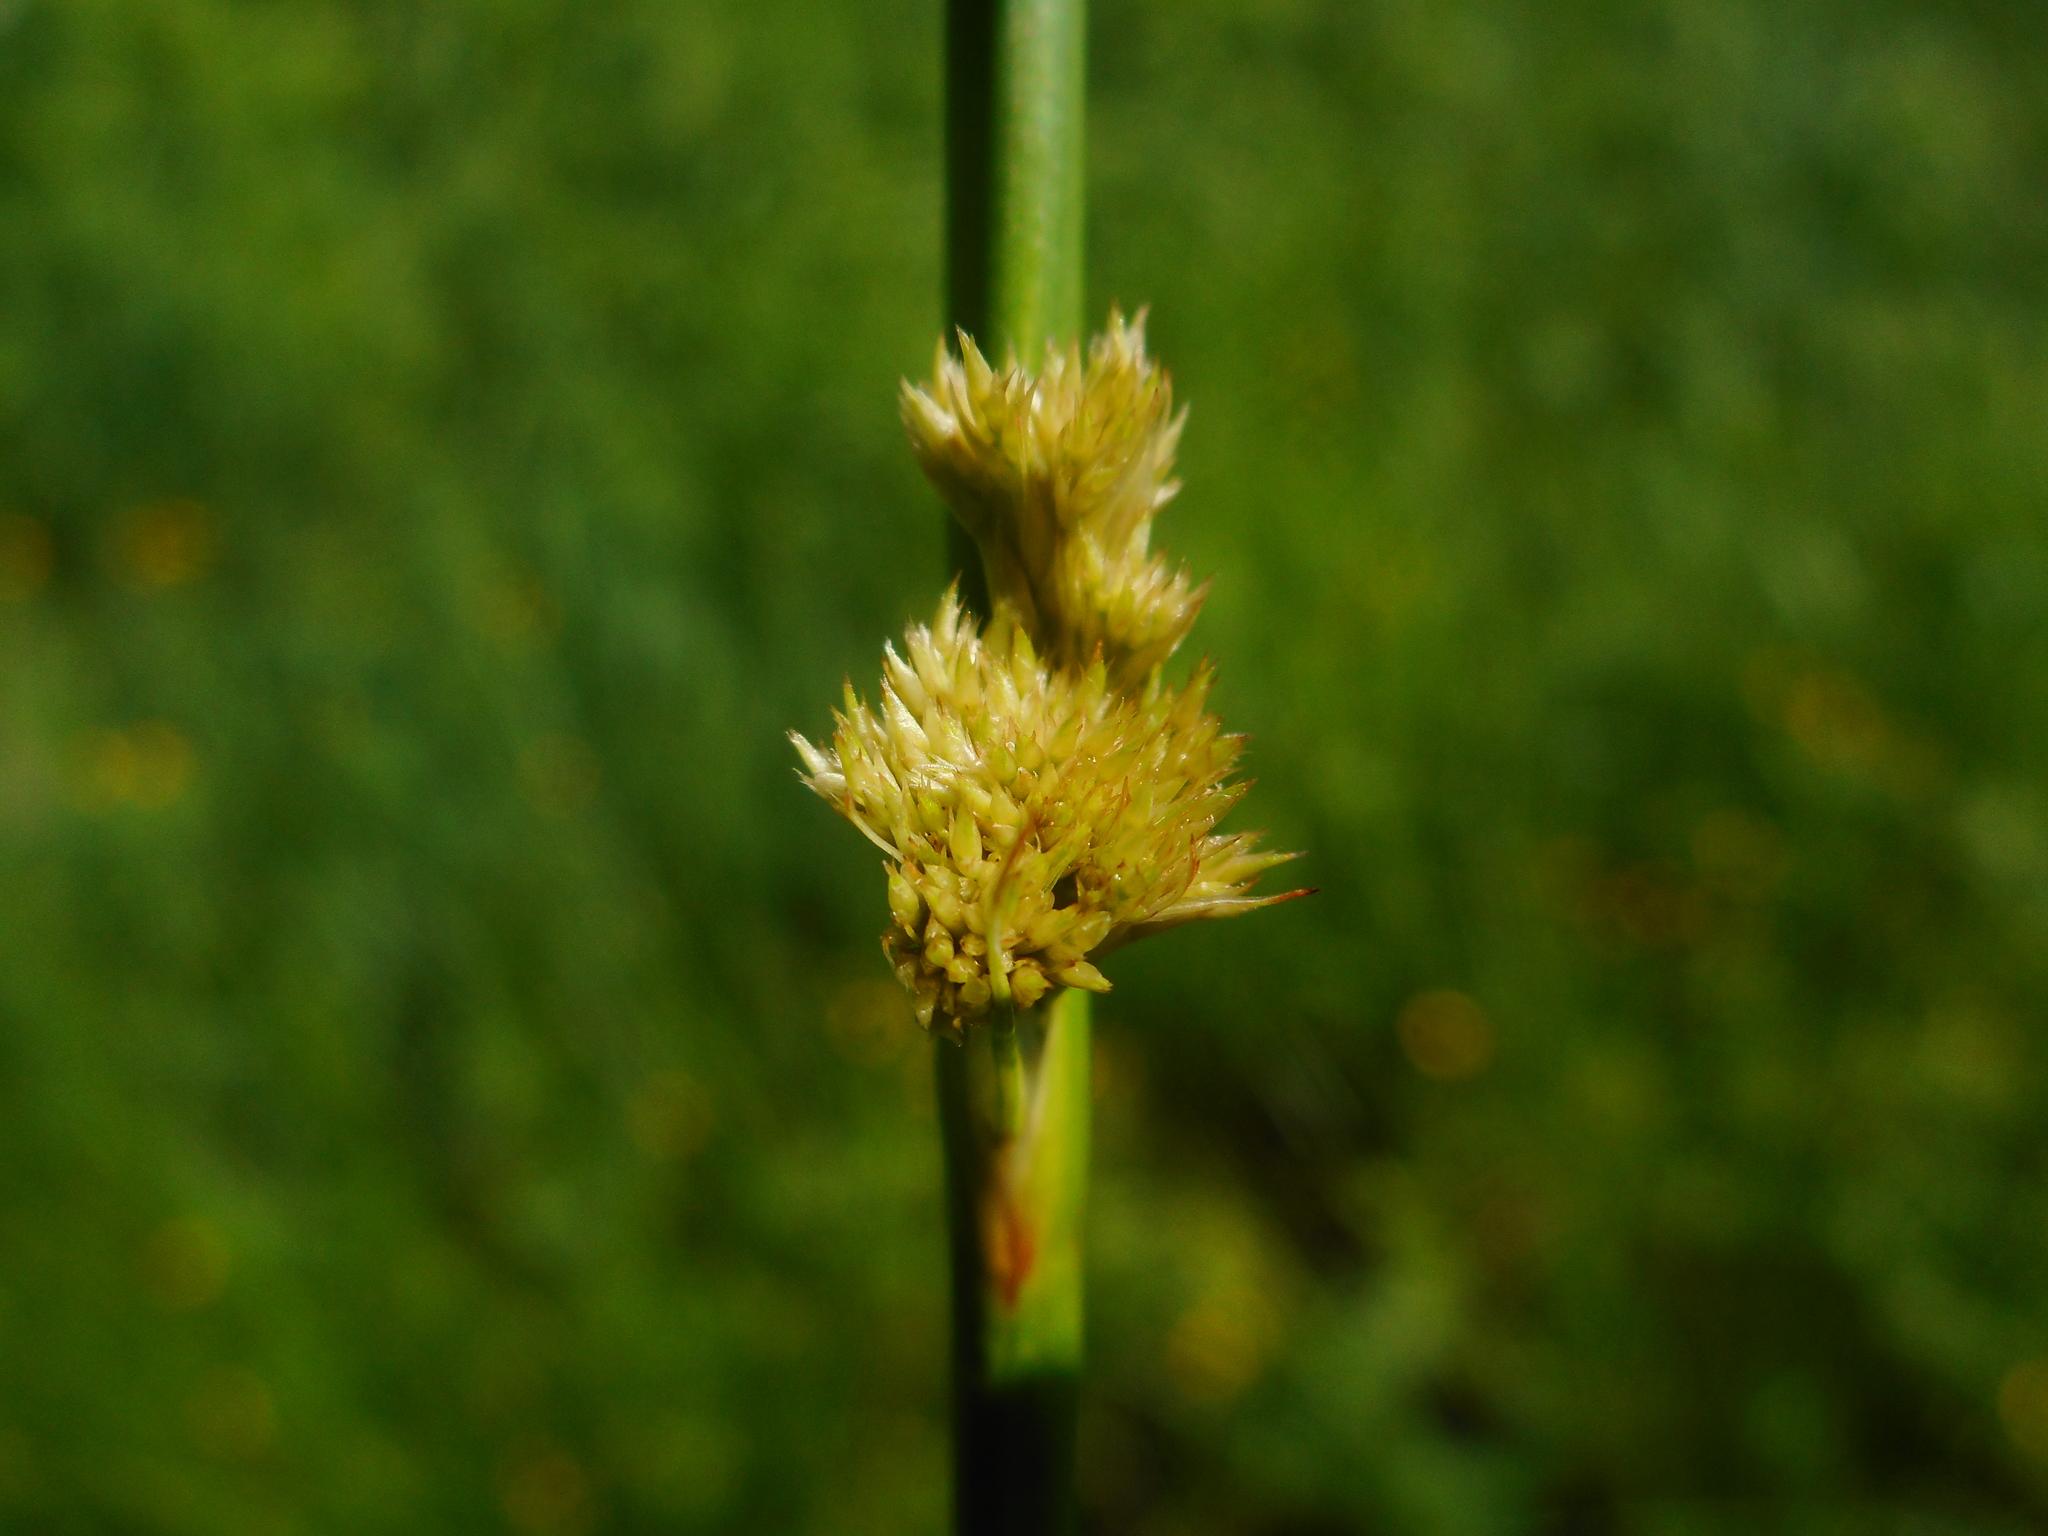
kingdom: Plantae
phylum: Tracheophyta
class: Liliopsida
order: Poales
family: Juncaceae
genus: Juncus
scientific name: Juncus effusus
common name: Soft rush
